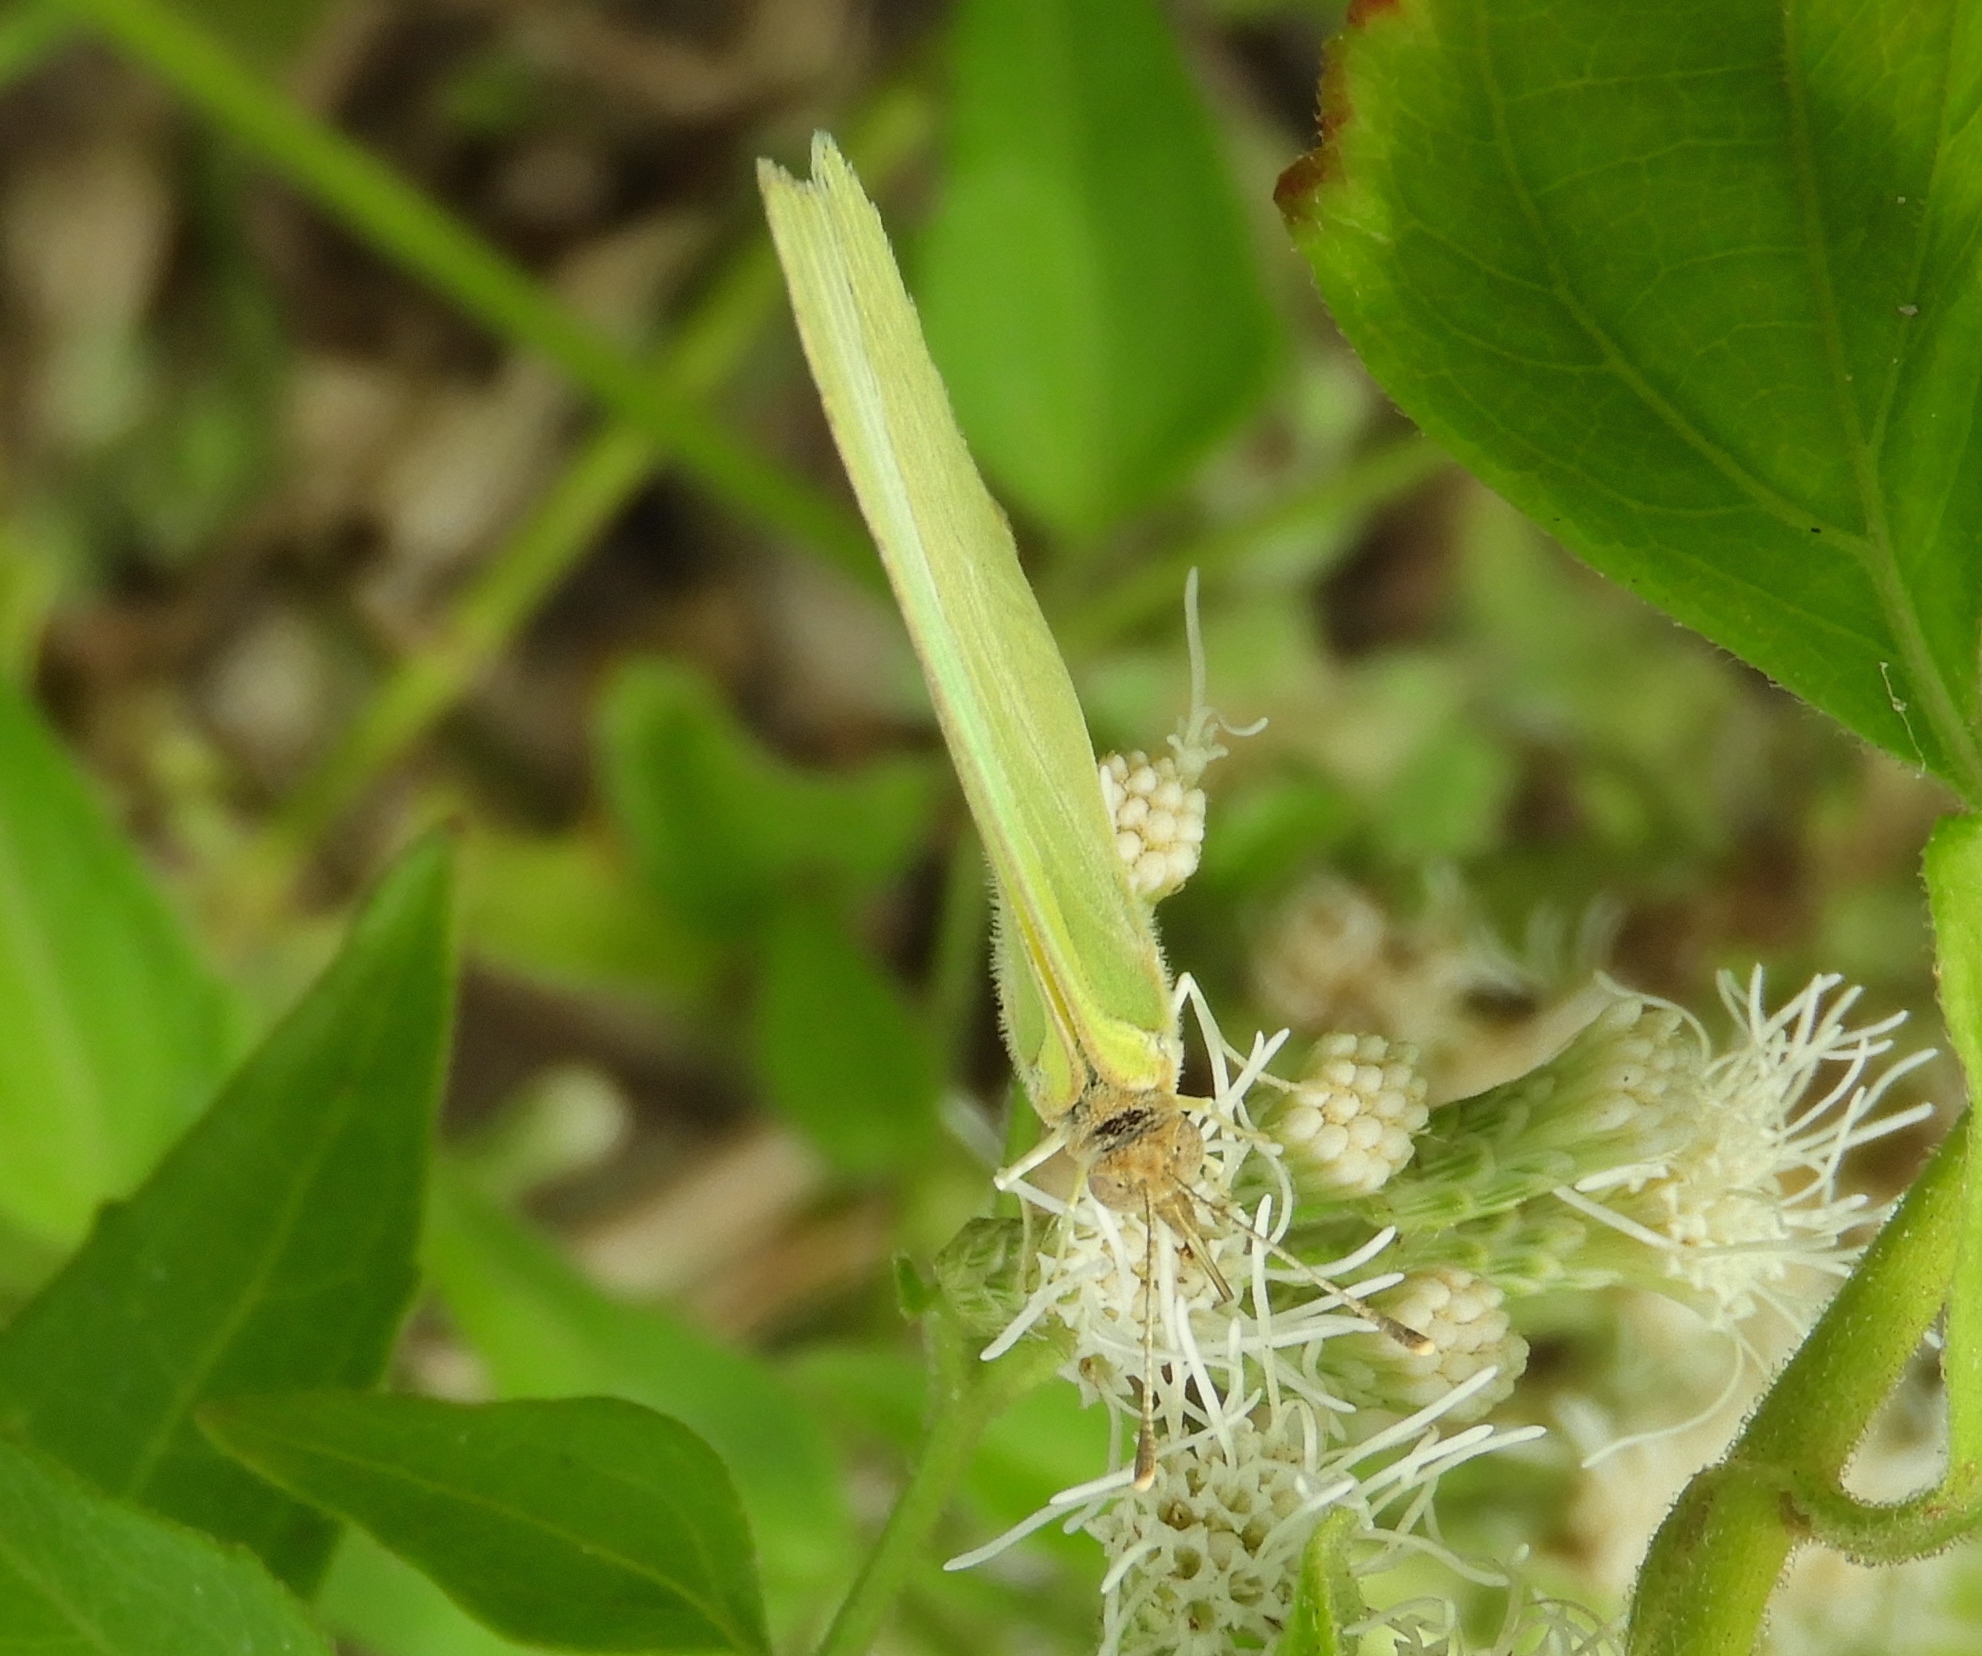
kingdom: Animalia
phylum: Arthropoda
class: Insecta
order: Lepidoptera
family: Pieridae
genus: Kricogonia
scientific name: Kricogonia lyside
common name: Guayacan sulphur,
